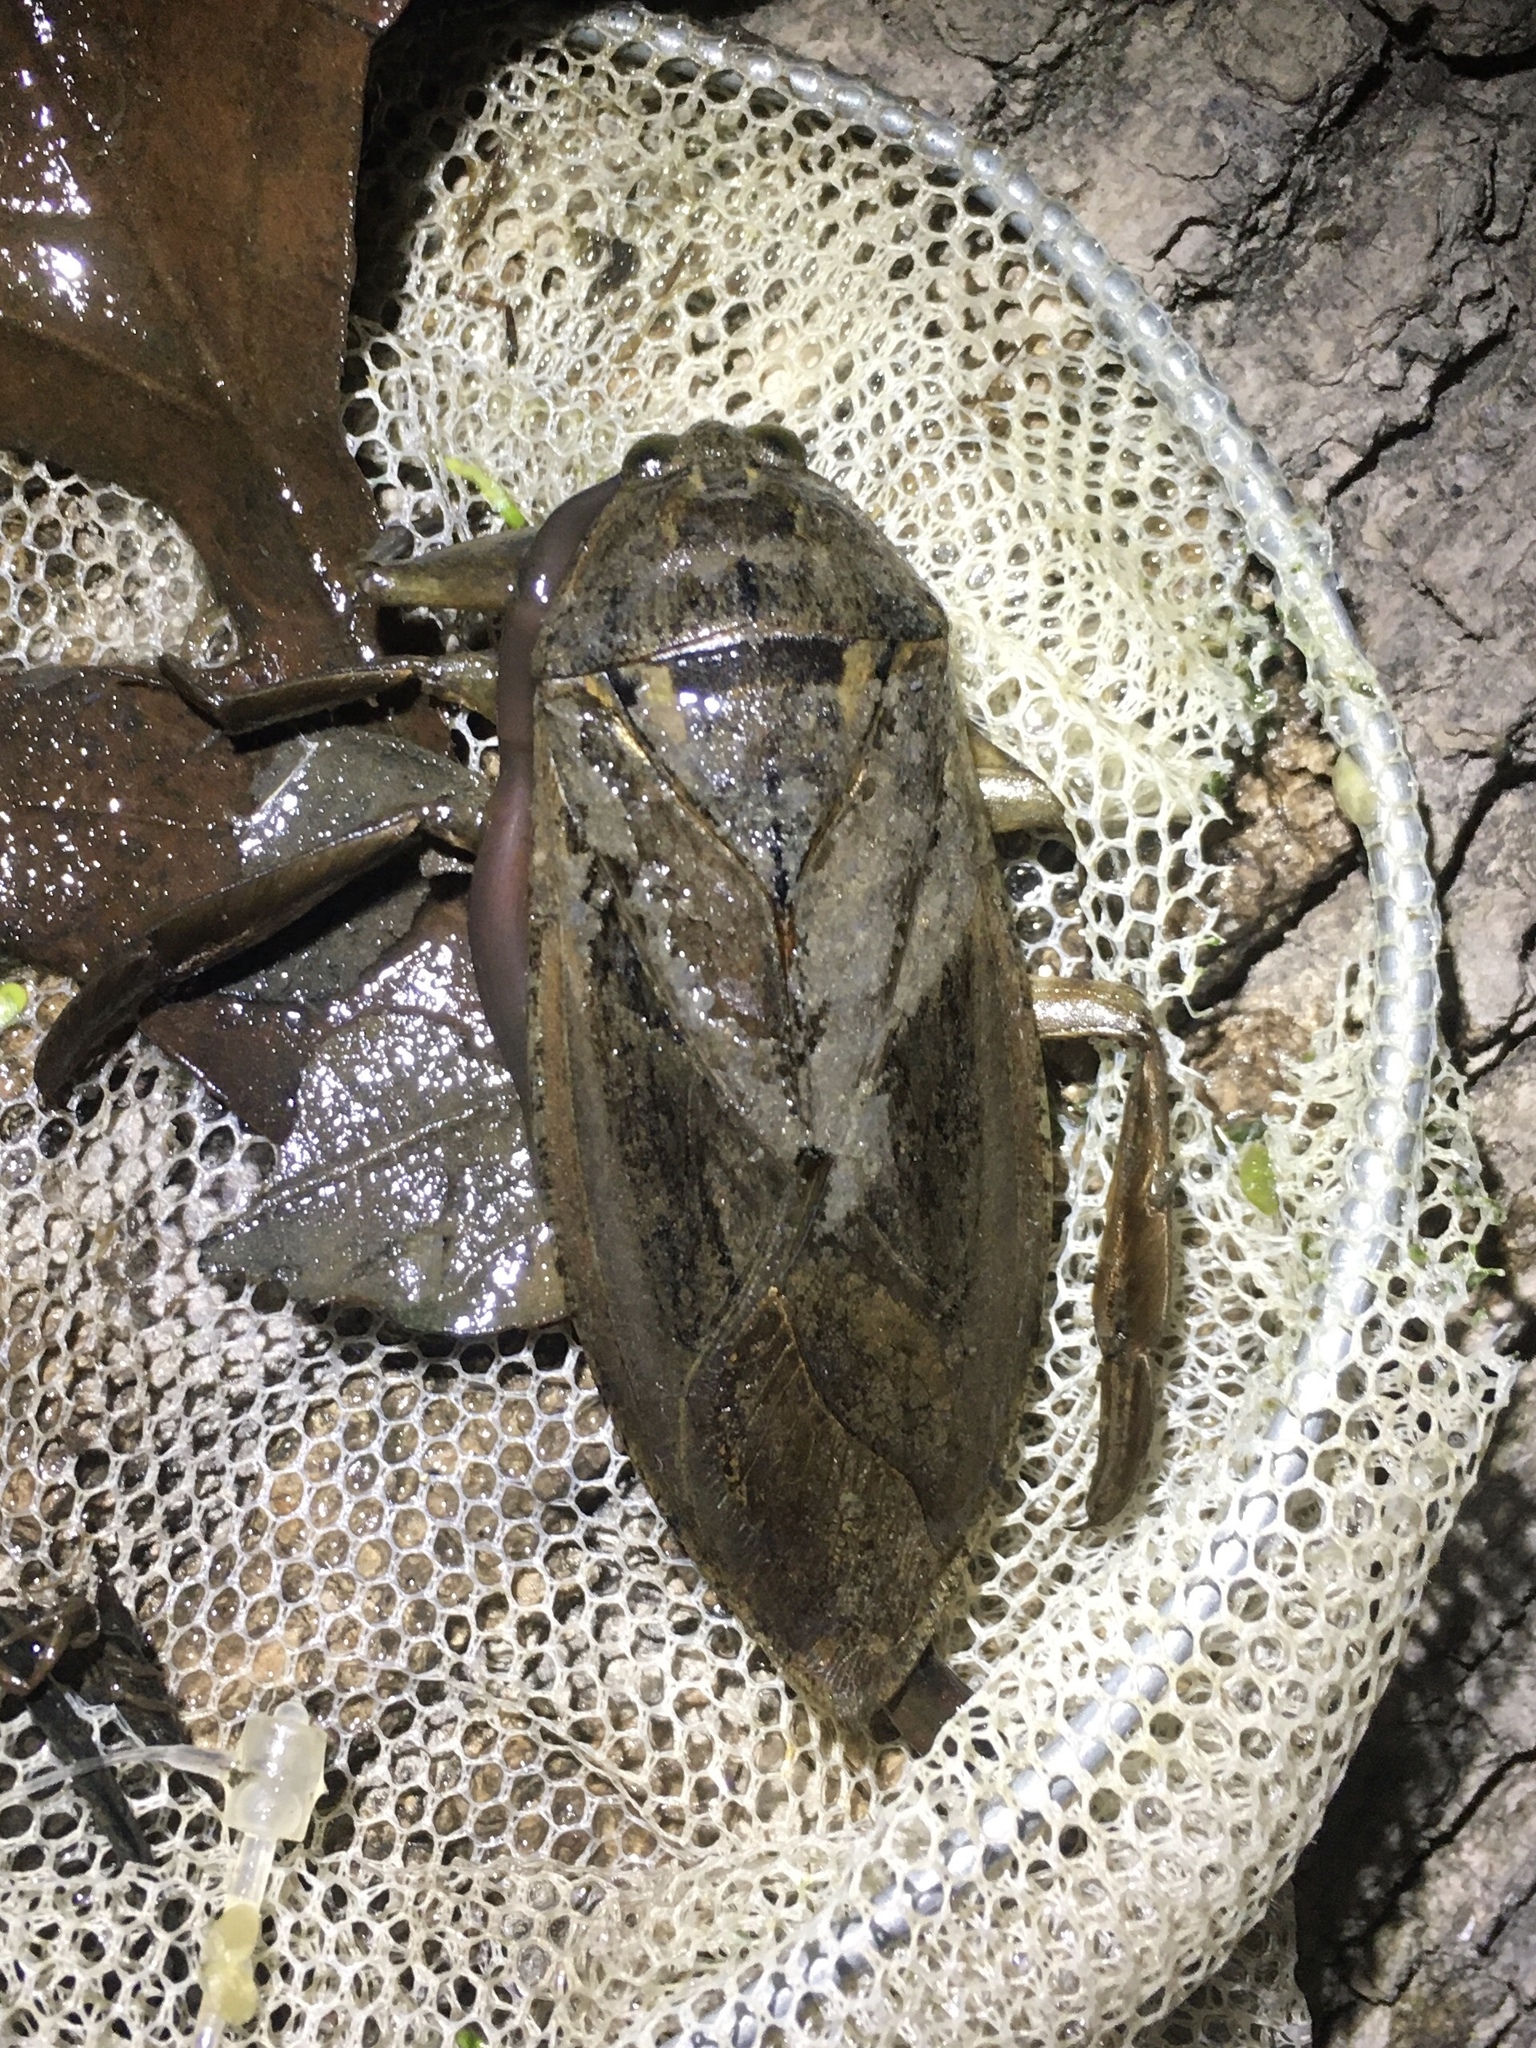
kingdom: Animalia
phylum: Arthropoda
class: Insecta
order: Hemiptera
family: Belostomatidae
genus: Lethocerus
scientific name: Lethocerus americanus
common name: Giant water bug
